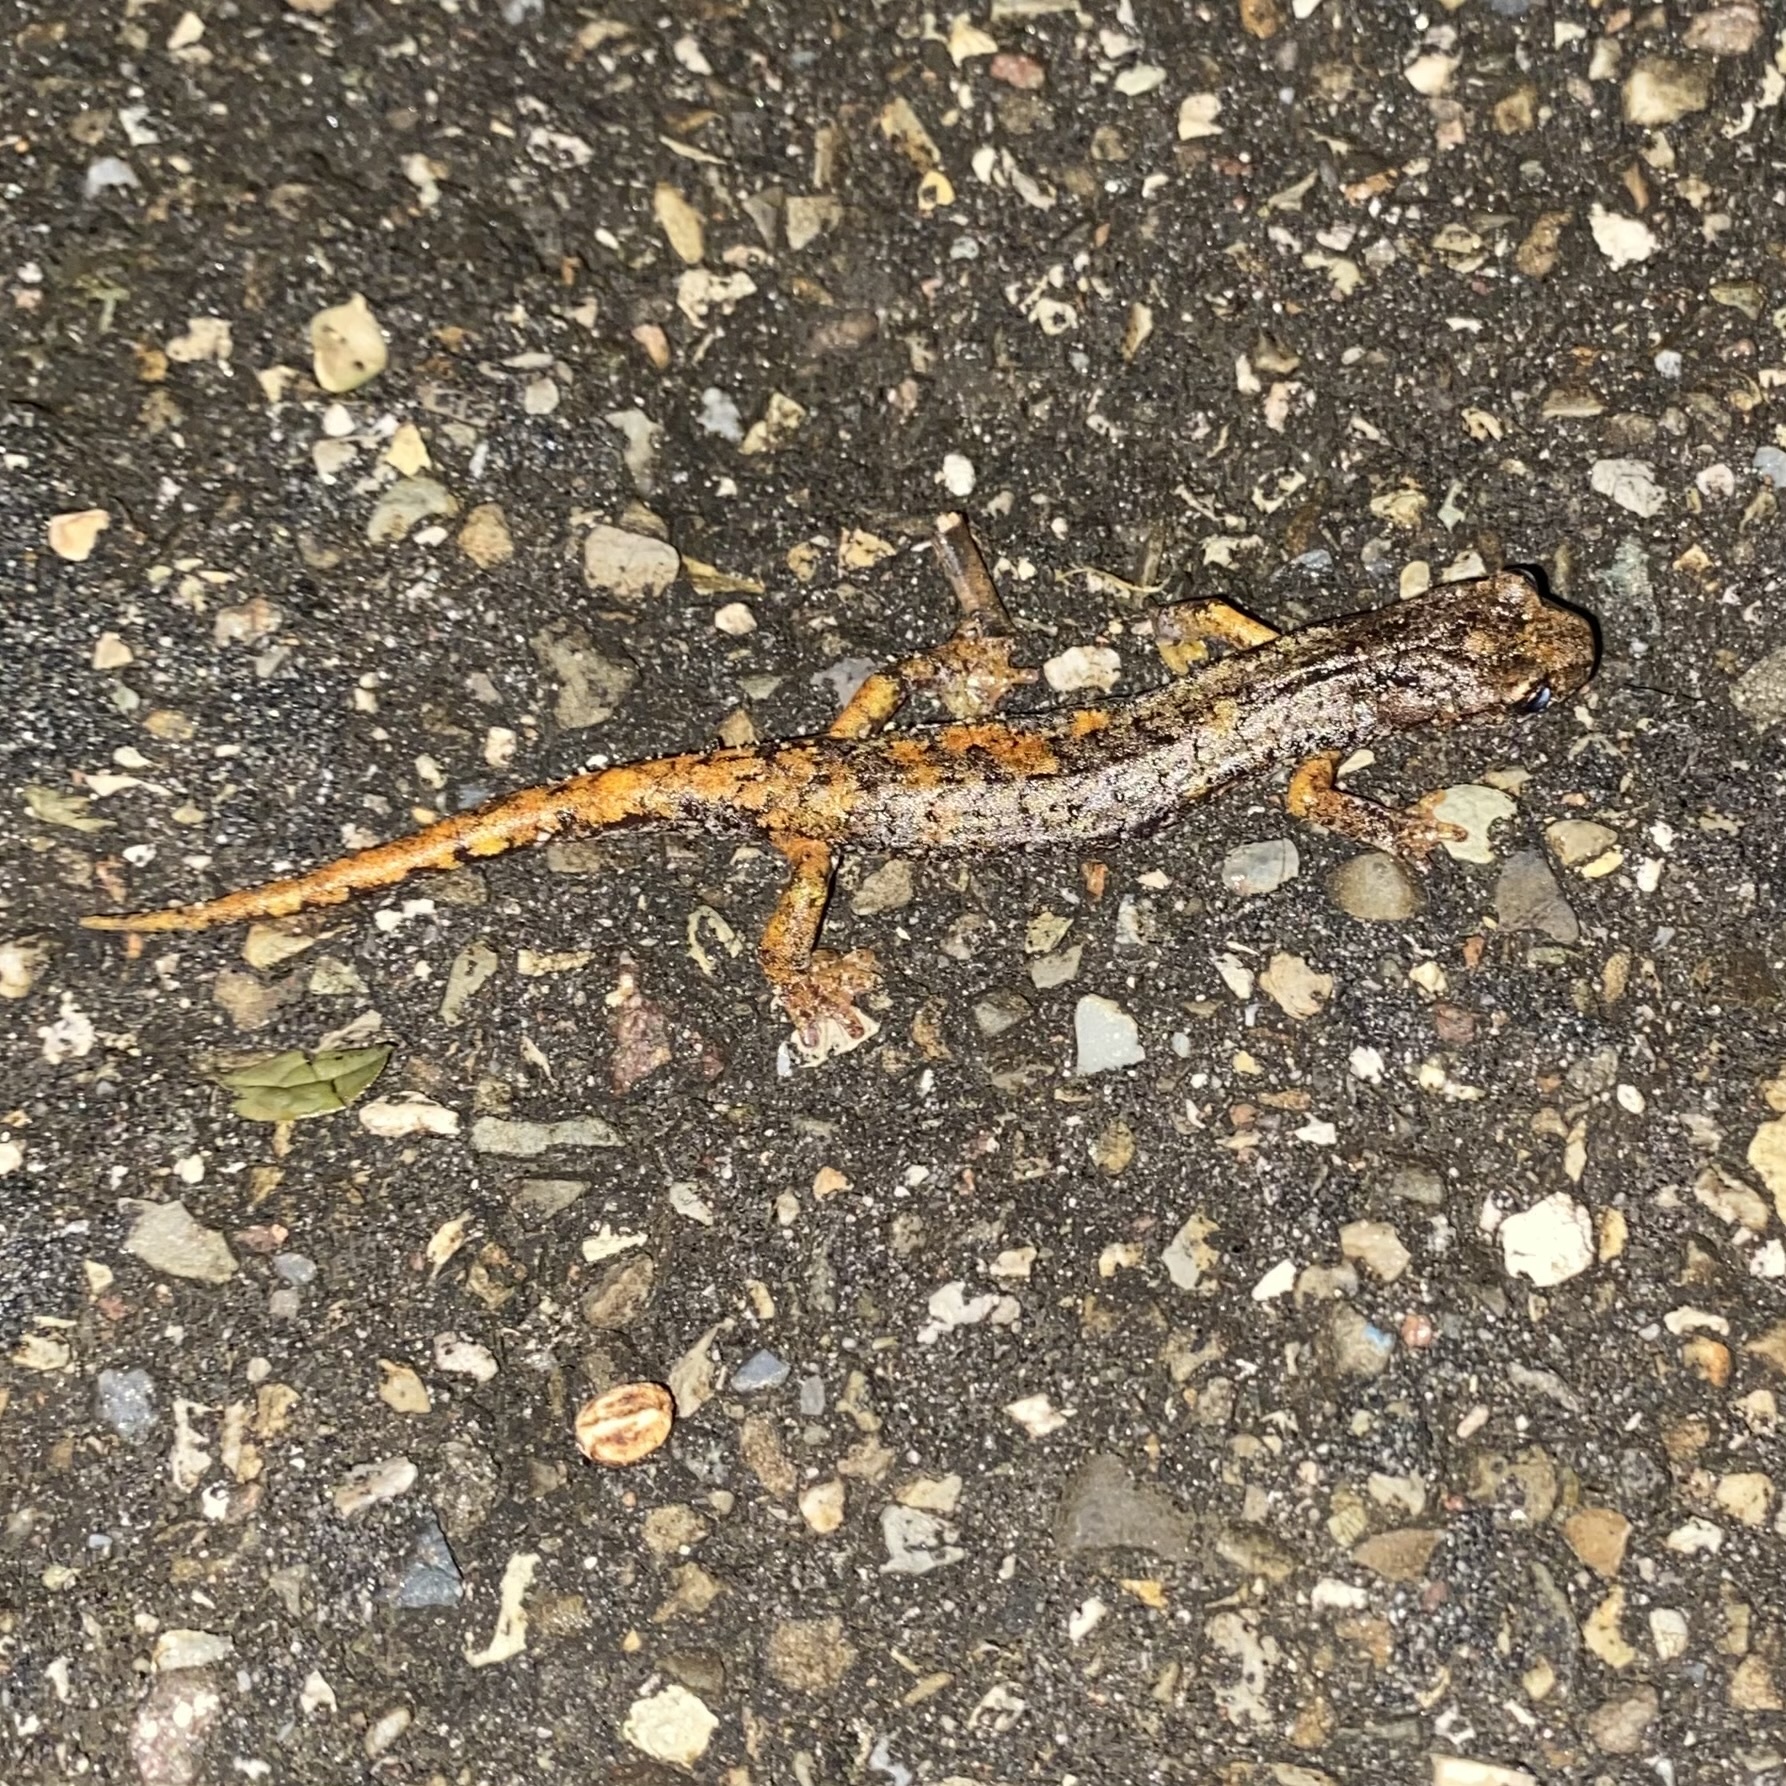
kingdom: Animalia
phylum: Chordata
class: Amphibia
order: Caudata
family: Plethodontidae
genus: Speleomantes
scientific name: Speleomantes italicus
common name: Italian cave salamander
